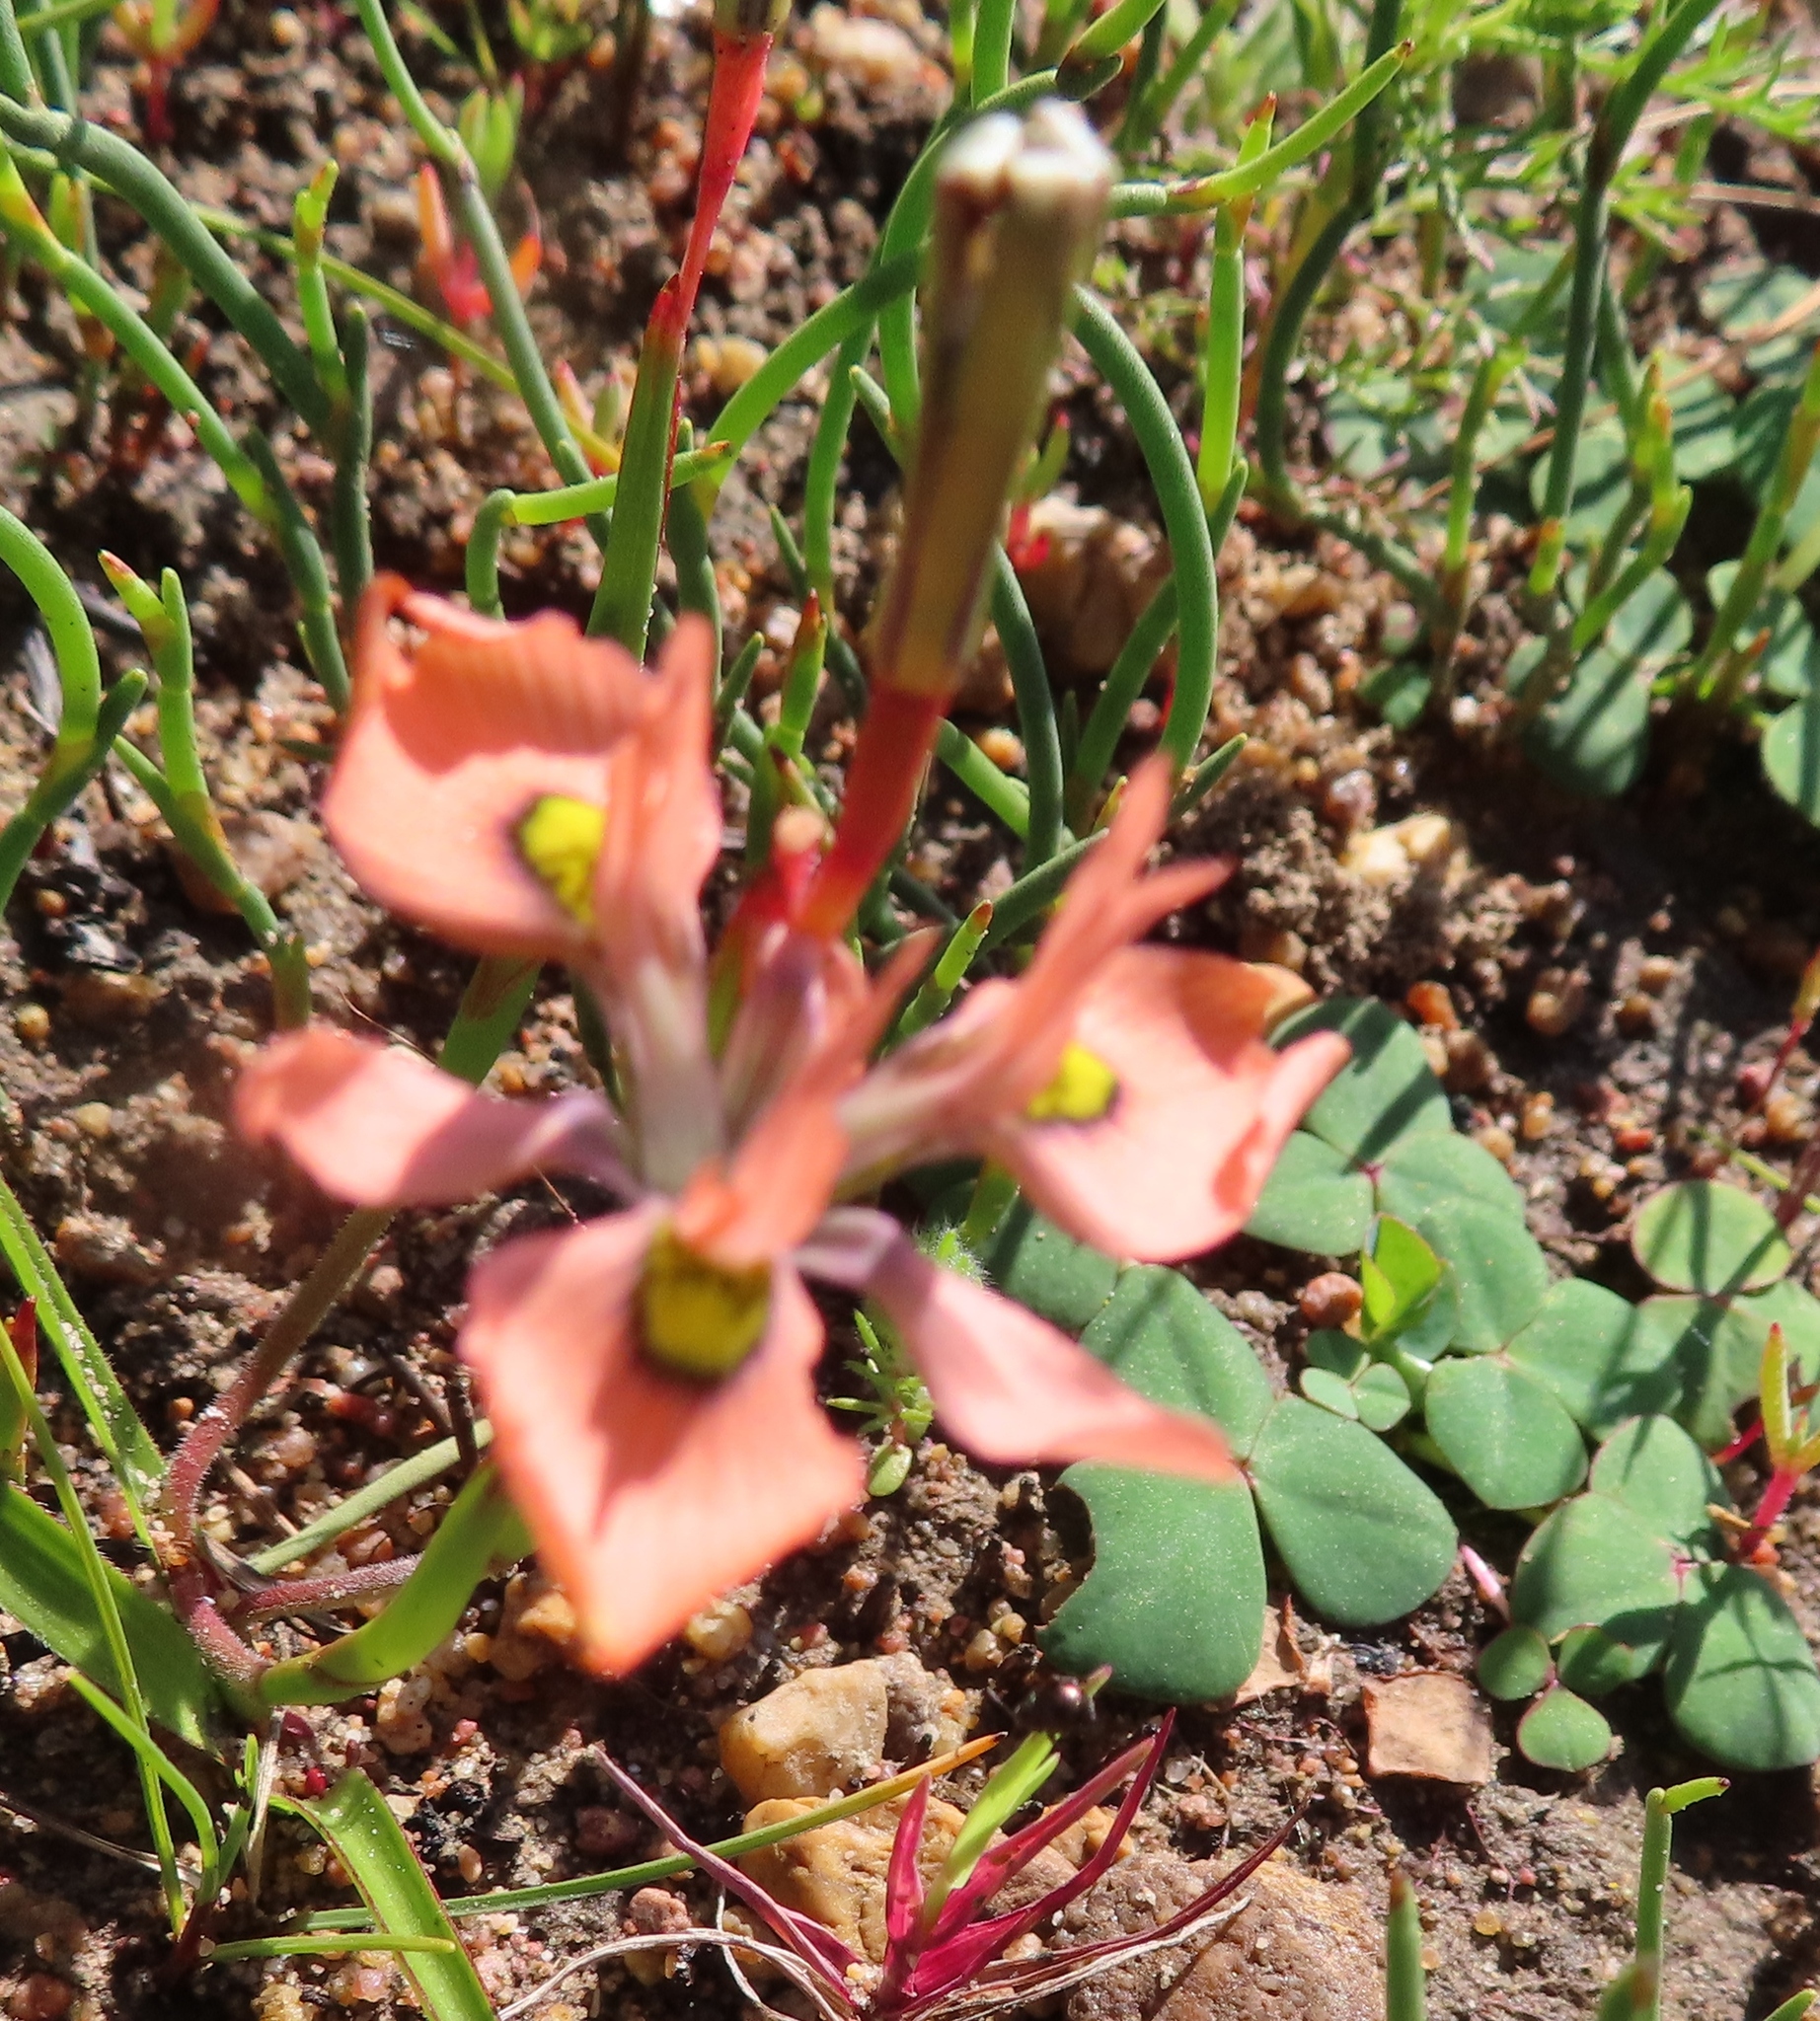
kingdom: Plantae
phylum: Tracheophyta
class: Liliopsida
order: Asparagales
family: Iridaceae
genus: Moraea
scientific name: Moraea papilionacea
